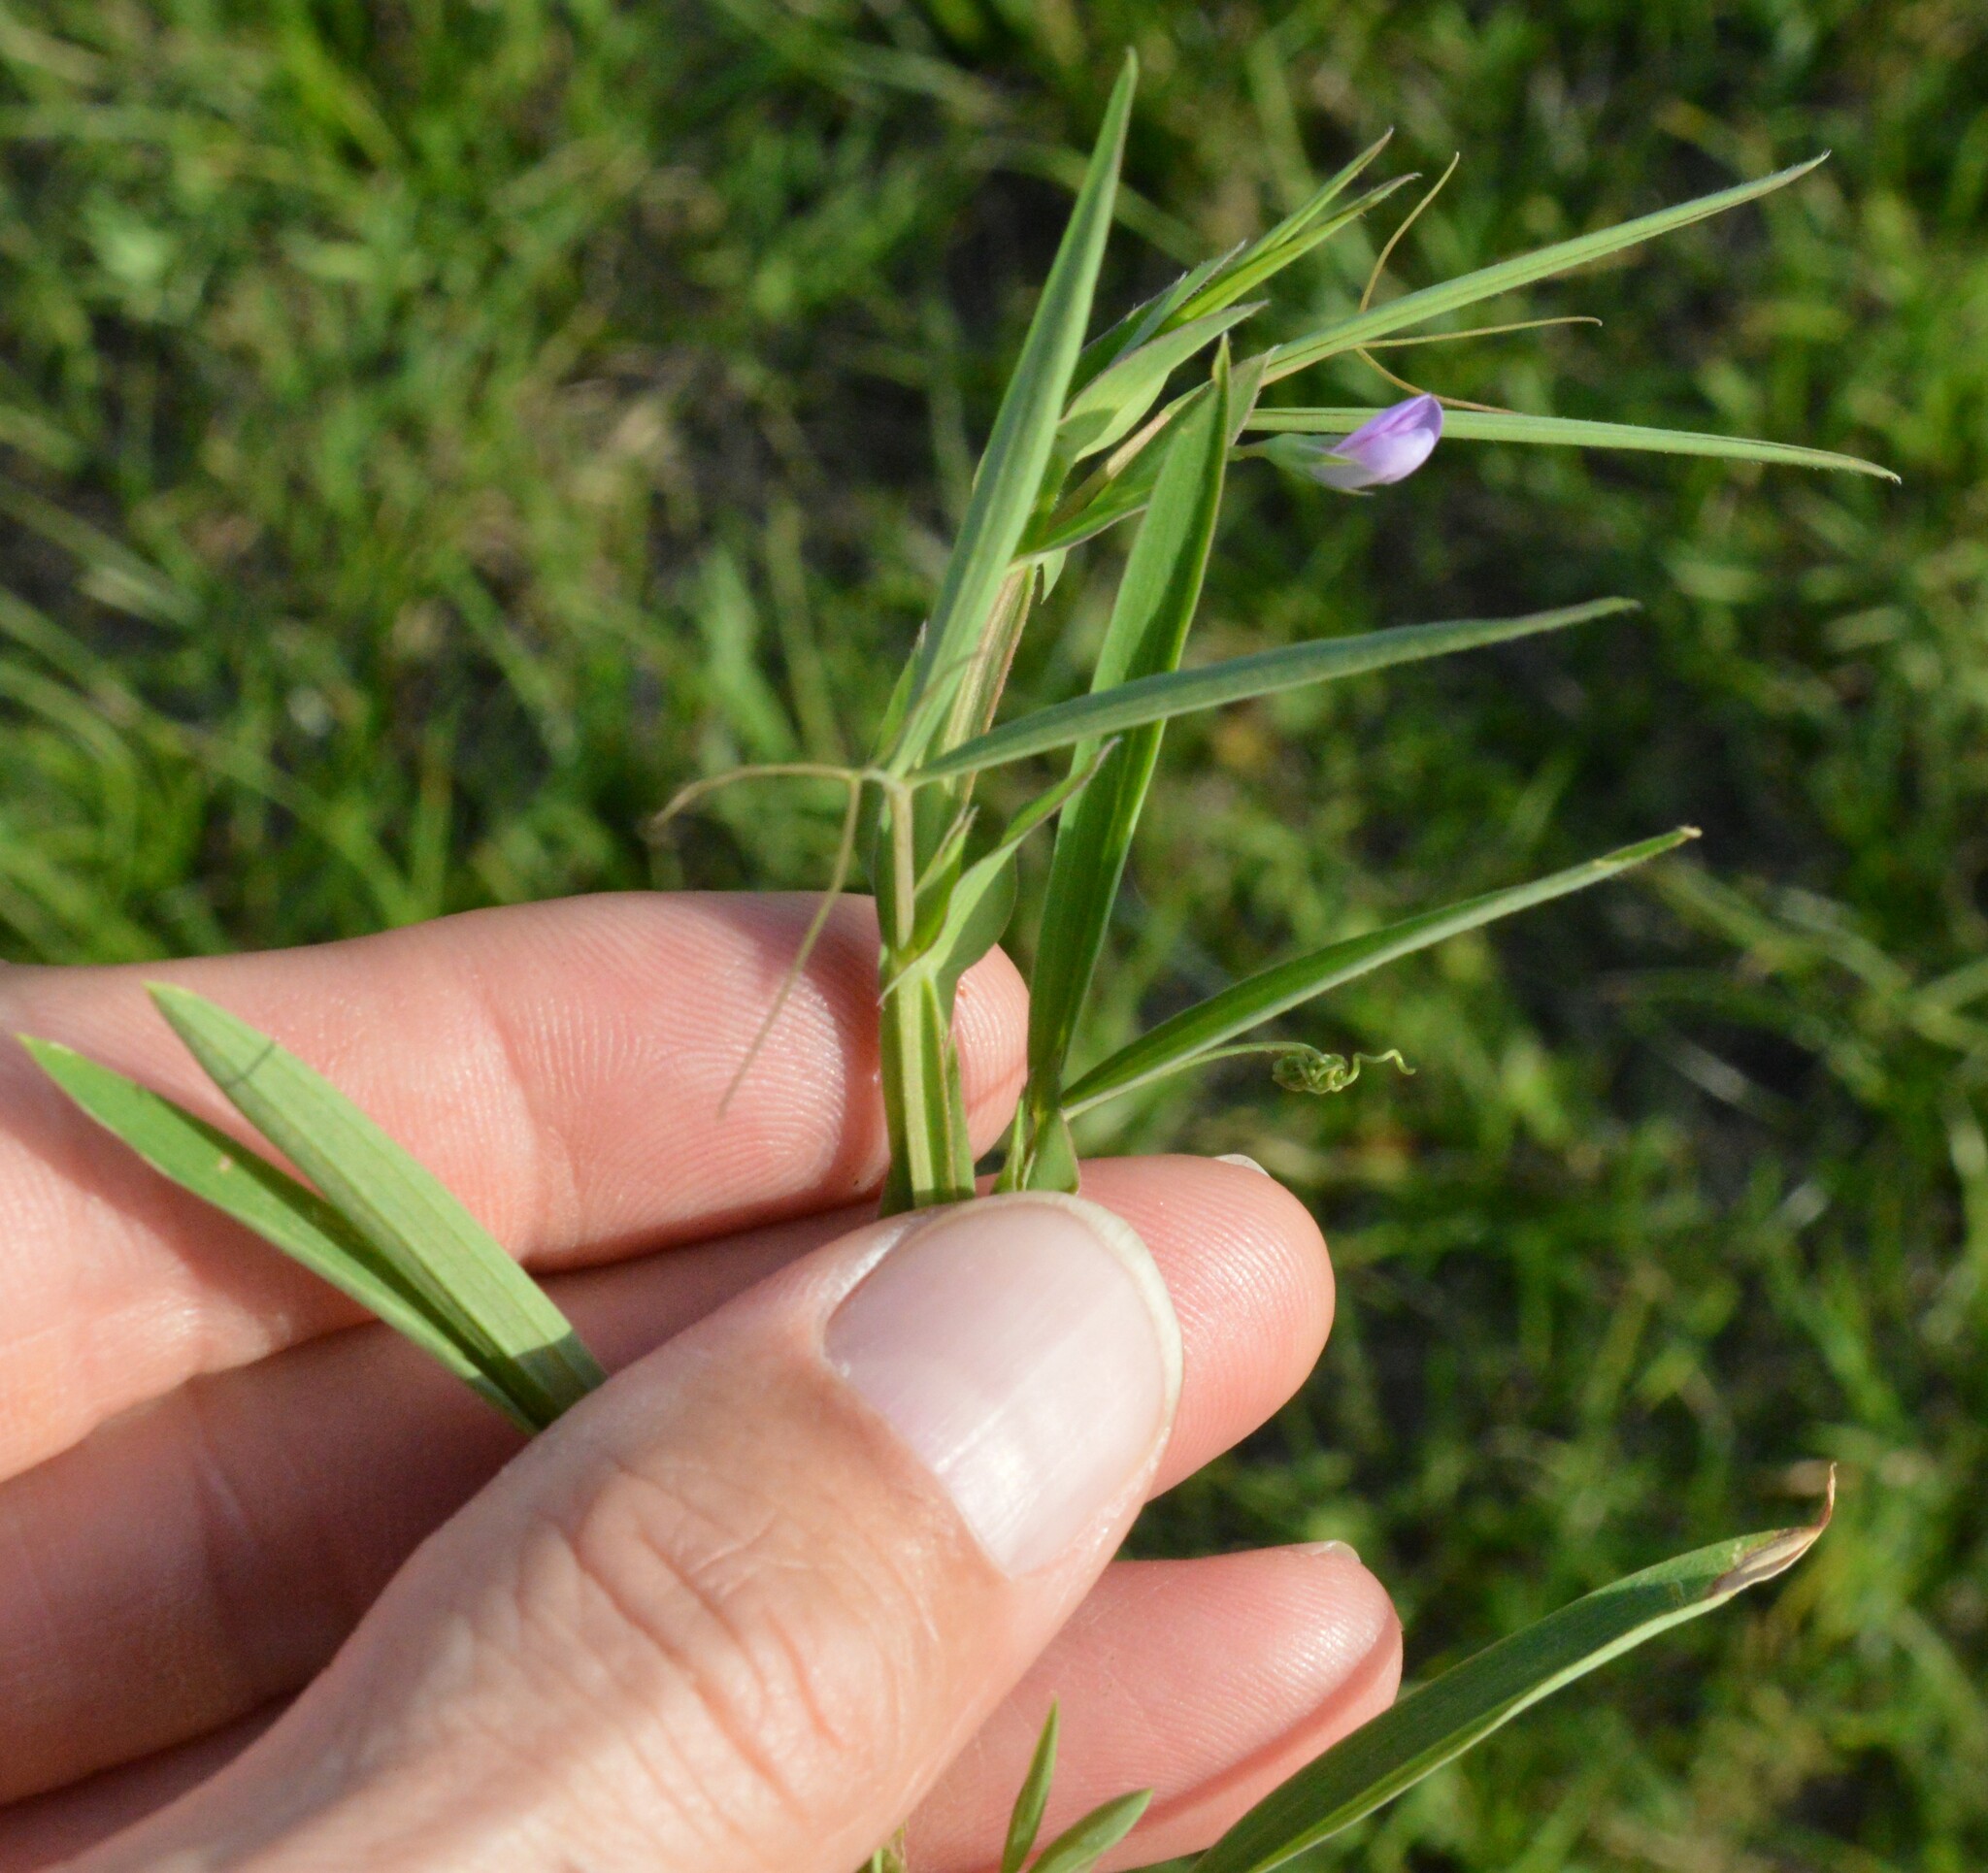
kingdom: Plantae
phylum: Tracheophyta
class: Magnoliopsida
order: Fabales
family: Fabaceae
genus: Lathyrus
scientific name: Lathyrus pusillus
